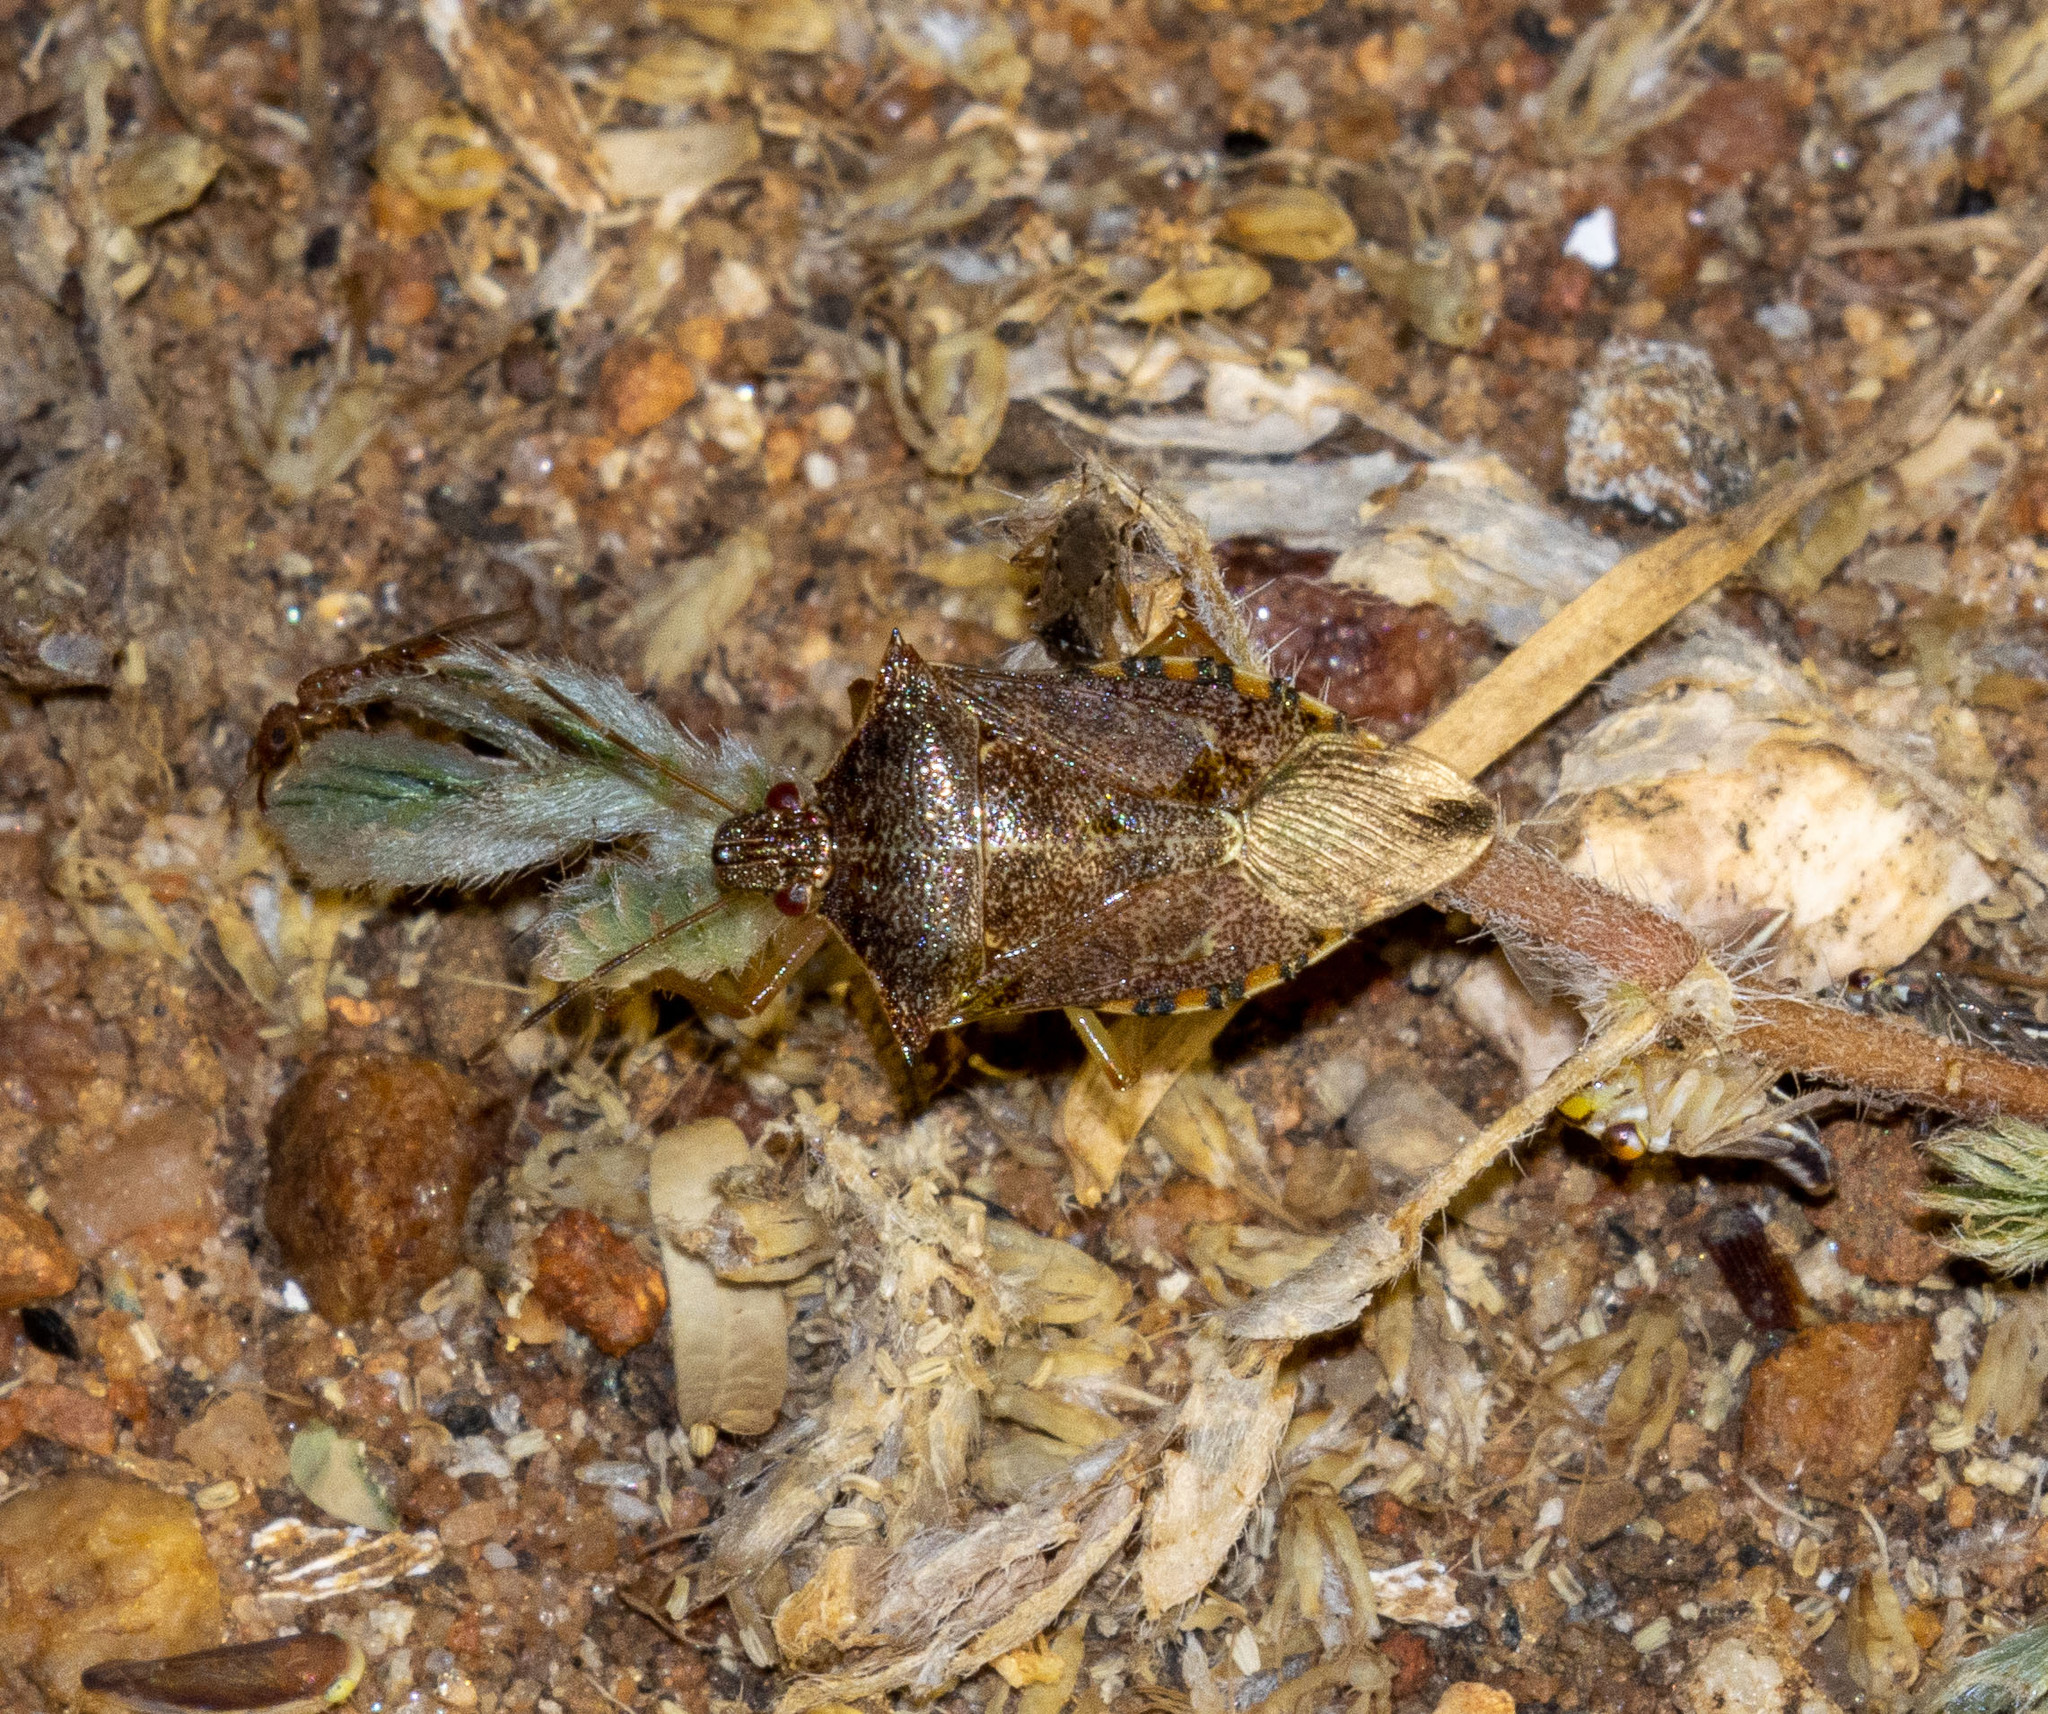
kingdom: Animalia
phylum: Arthropoda
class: Insecta
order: Hemiptera
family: Pentatomidae
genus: Podisus
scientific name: Podisus nigrispinus
